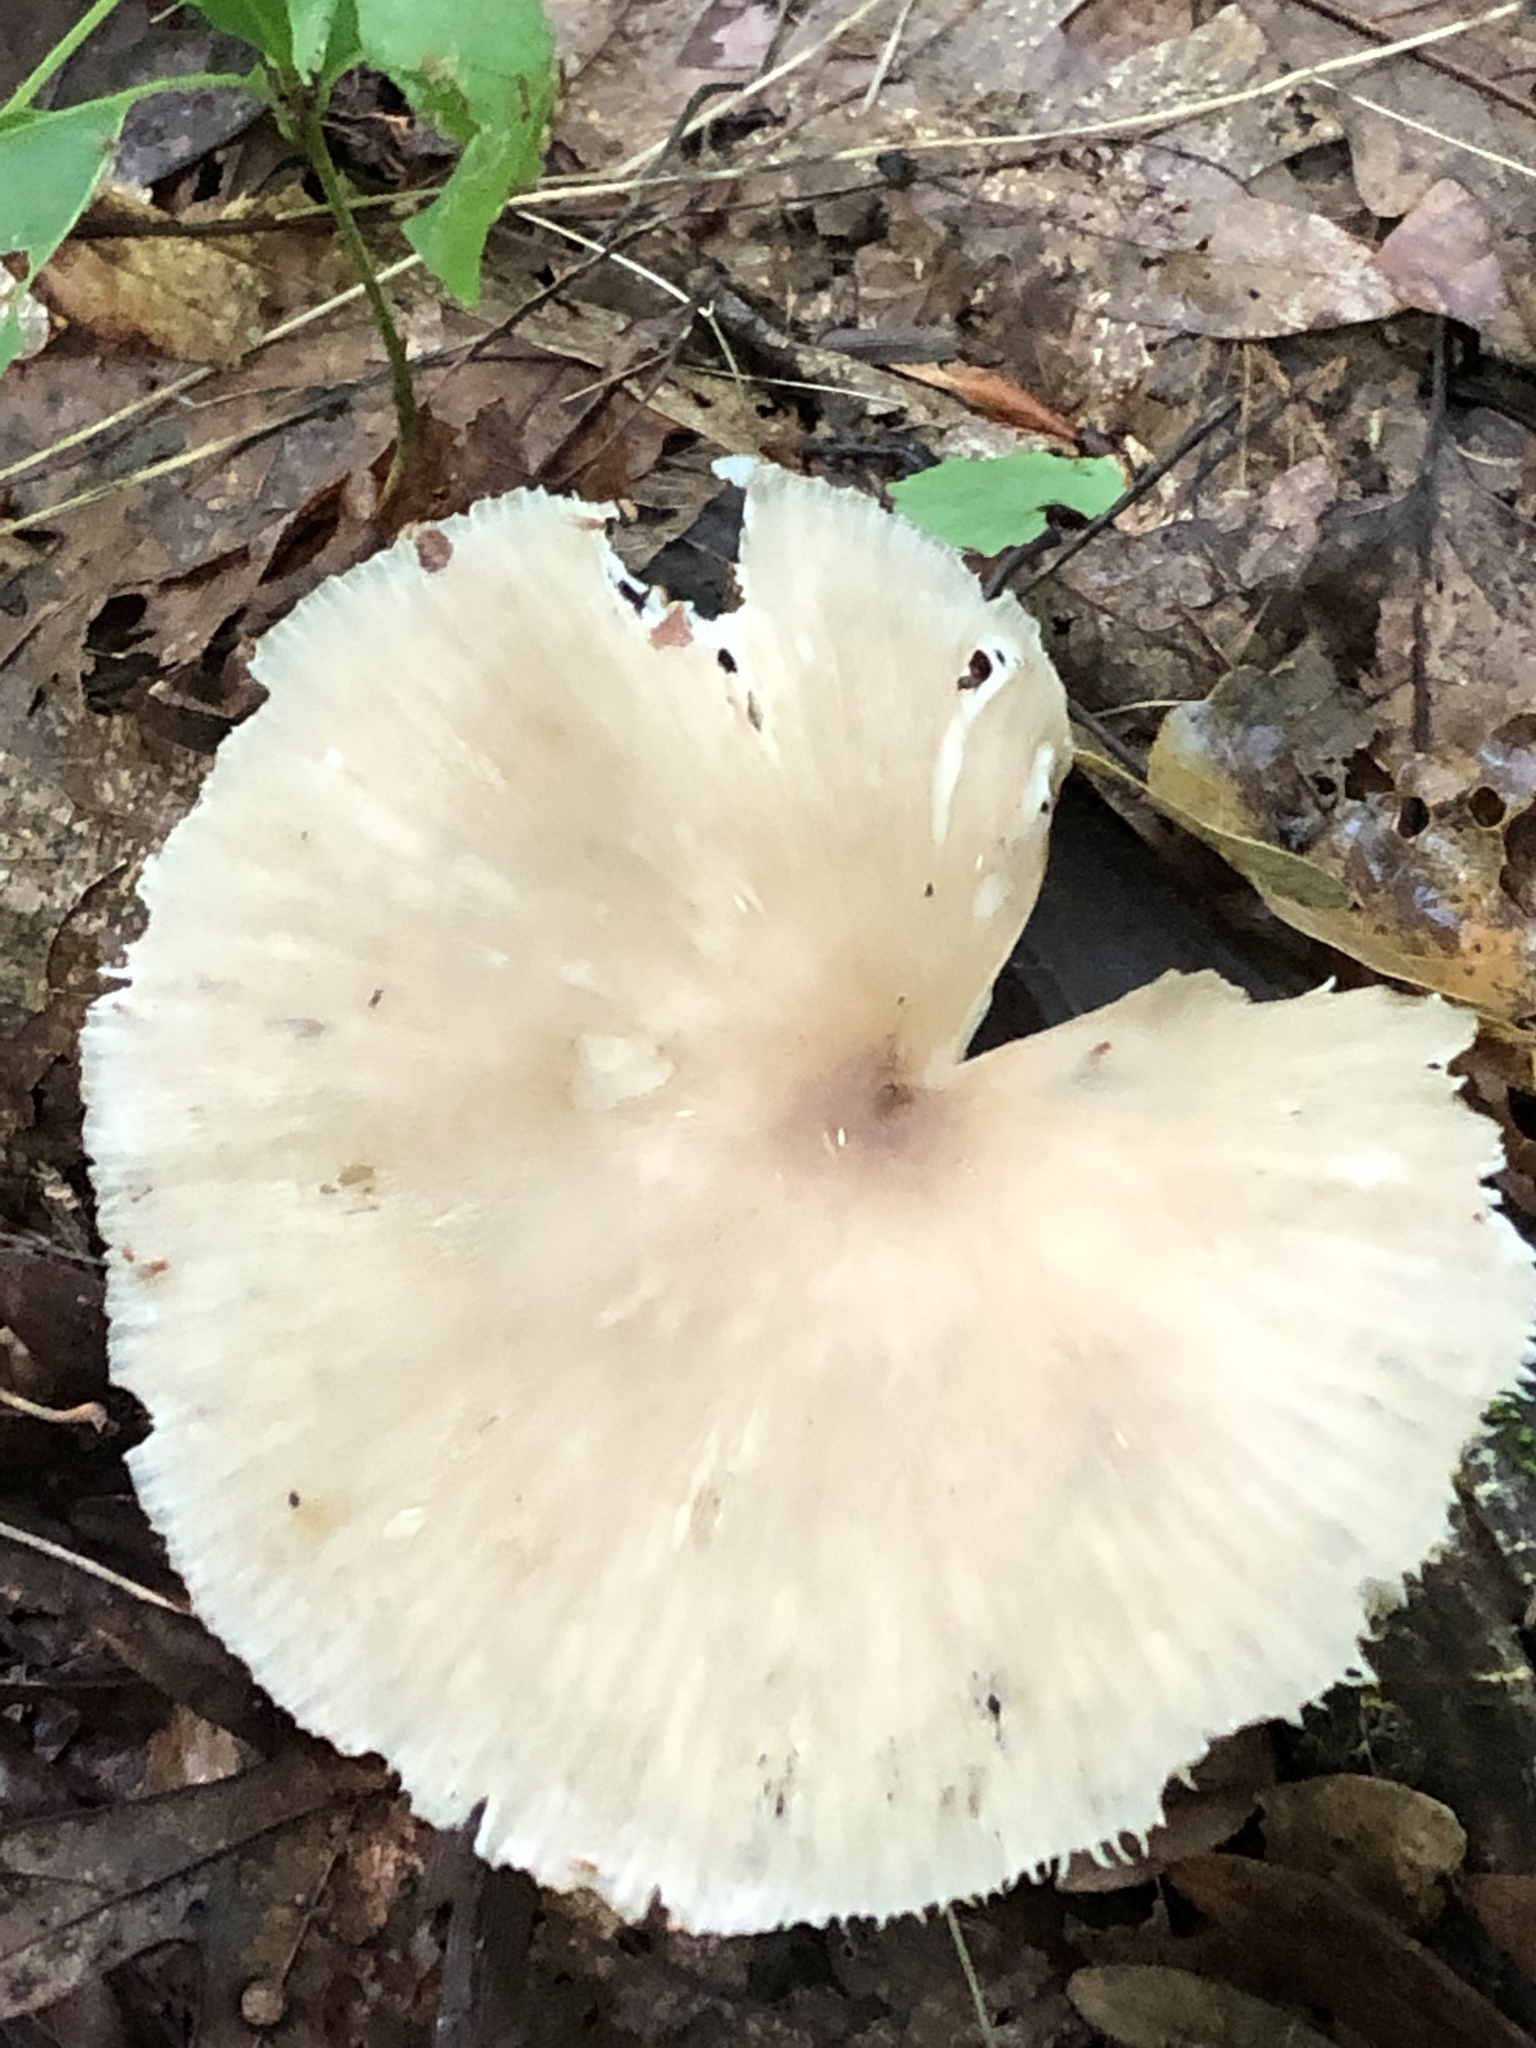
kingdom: Fungi
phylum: Basidiomycota
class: Agaricomycetes
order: Agaricales
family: Tricholomataceae
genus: Megacollybia
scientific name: Megacollybia rodmanii
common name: Eastern american platterful mushroom
